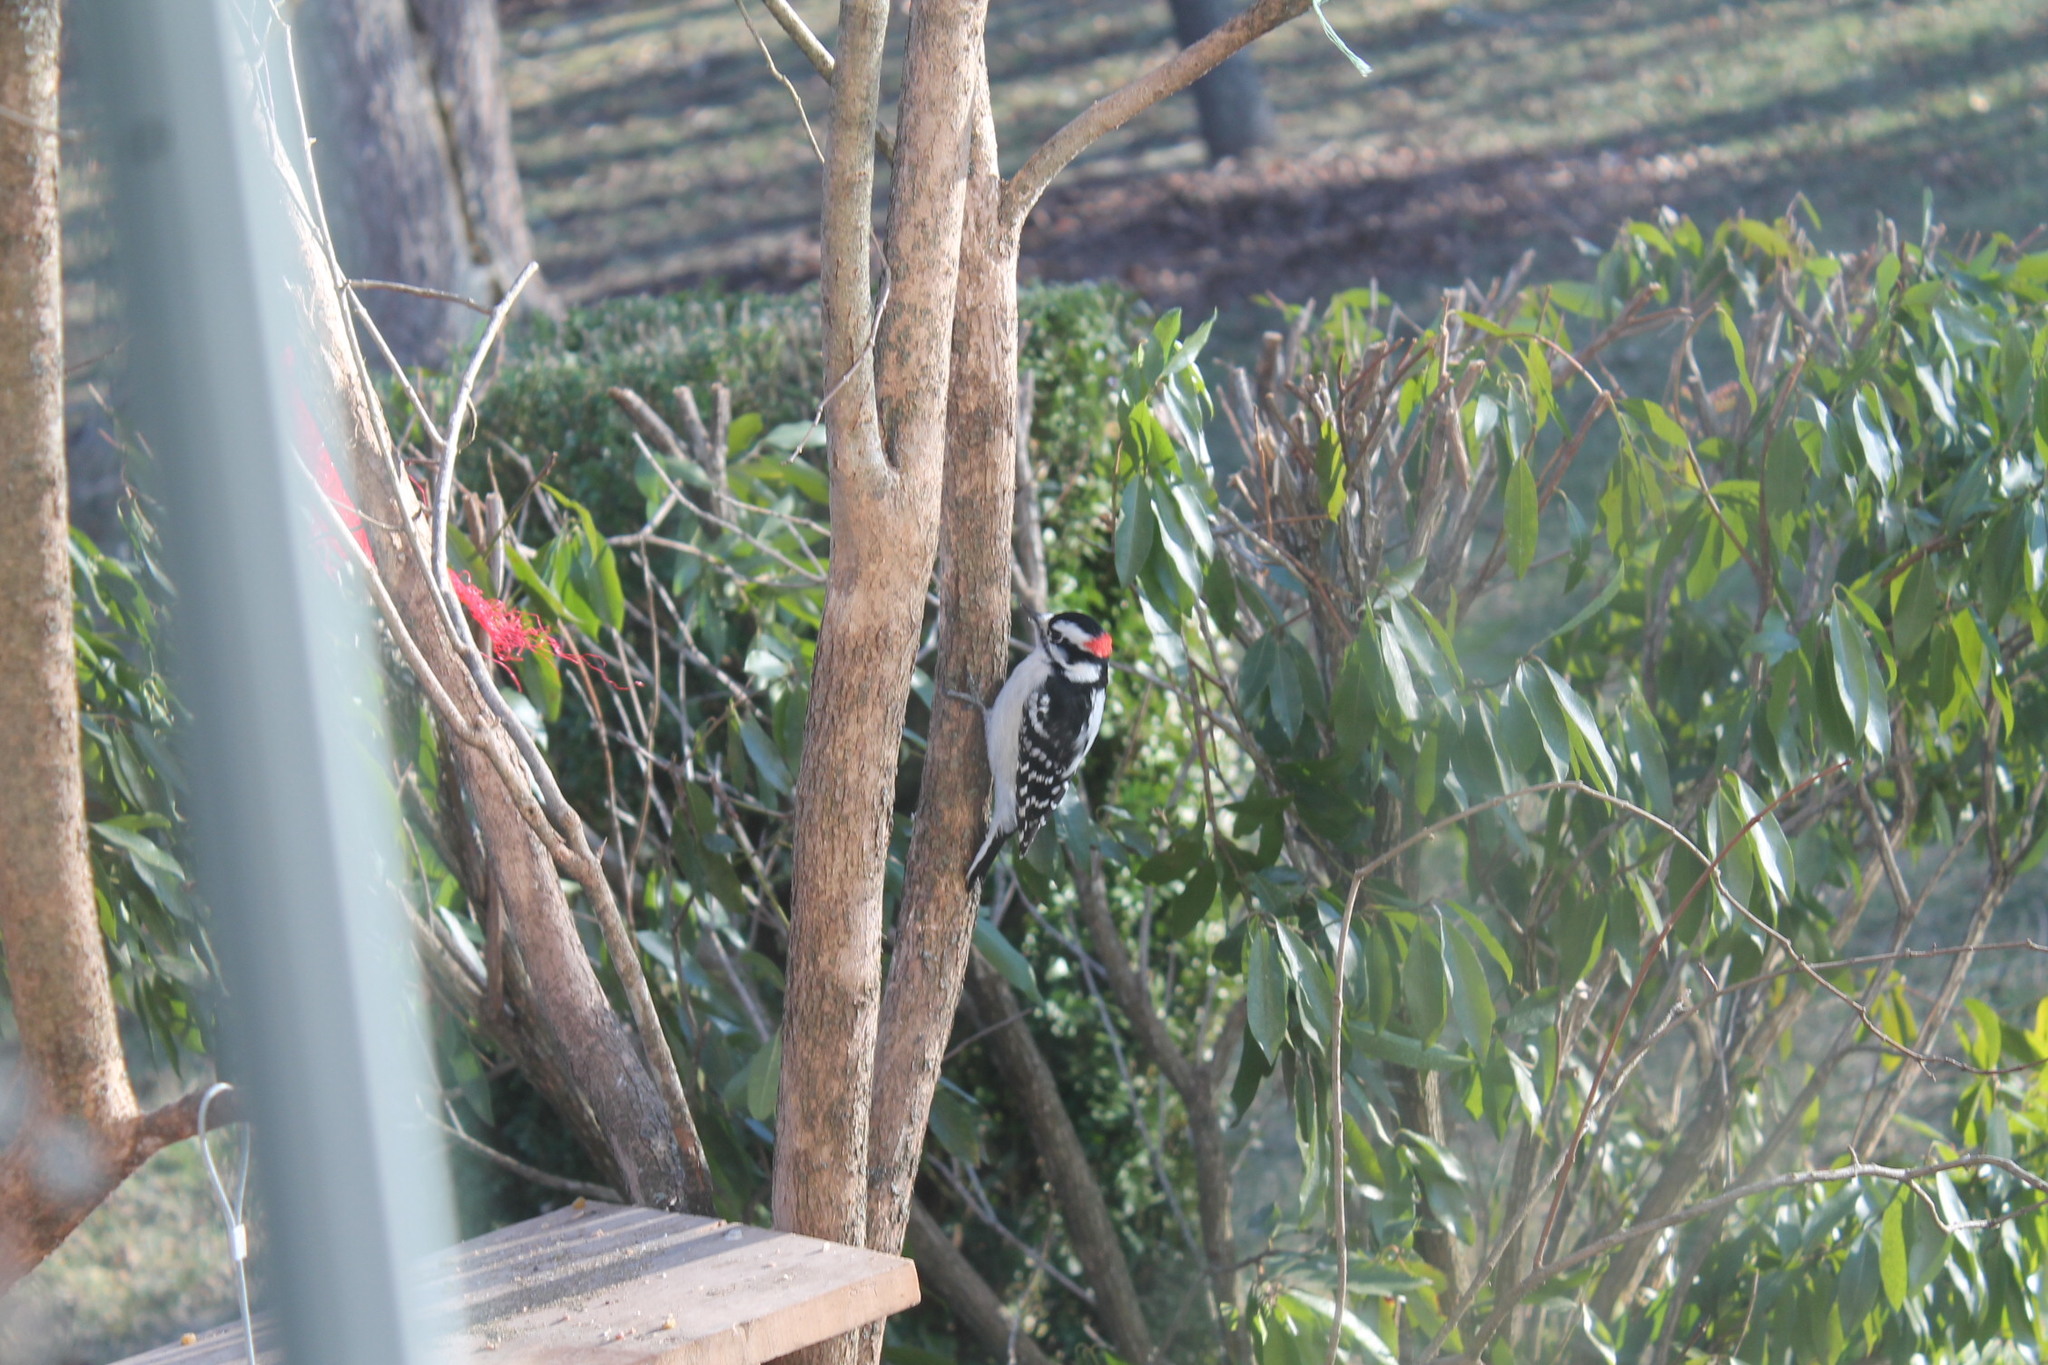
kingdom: Animalia
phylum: Chordata
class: Aves
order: Piciformes
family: Picidae
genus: Dryobates
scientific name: Dryobates pubescens
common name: Downy woodpecker
